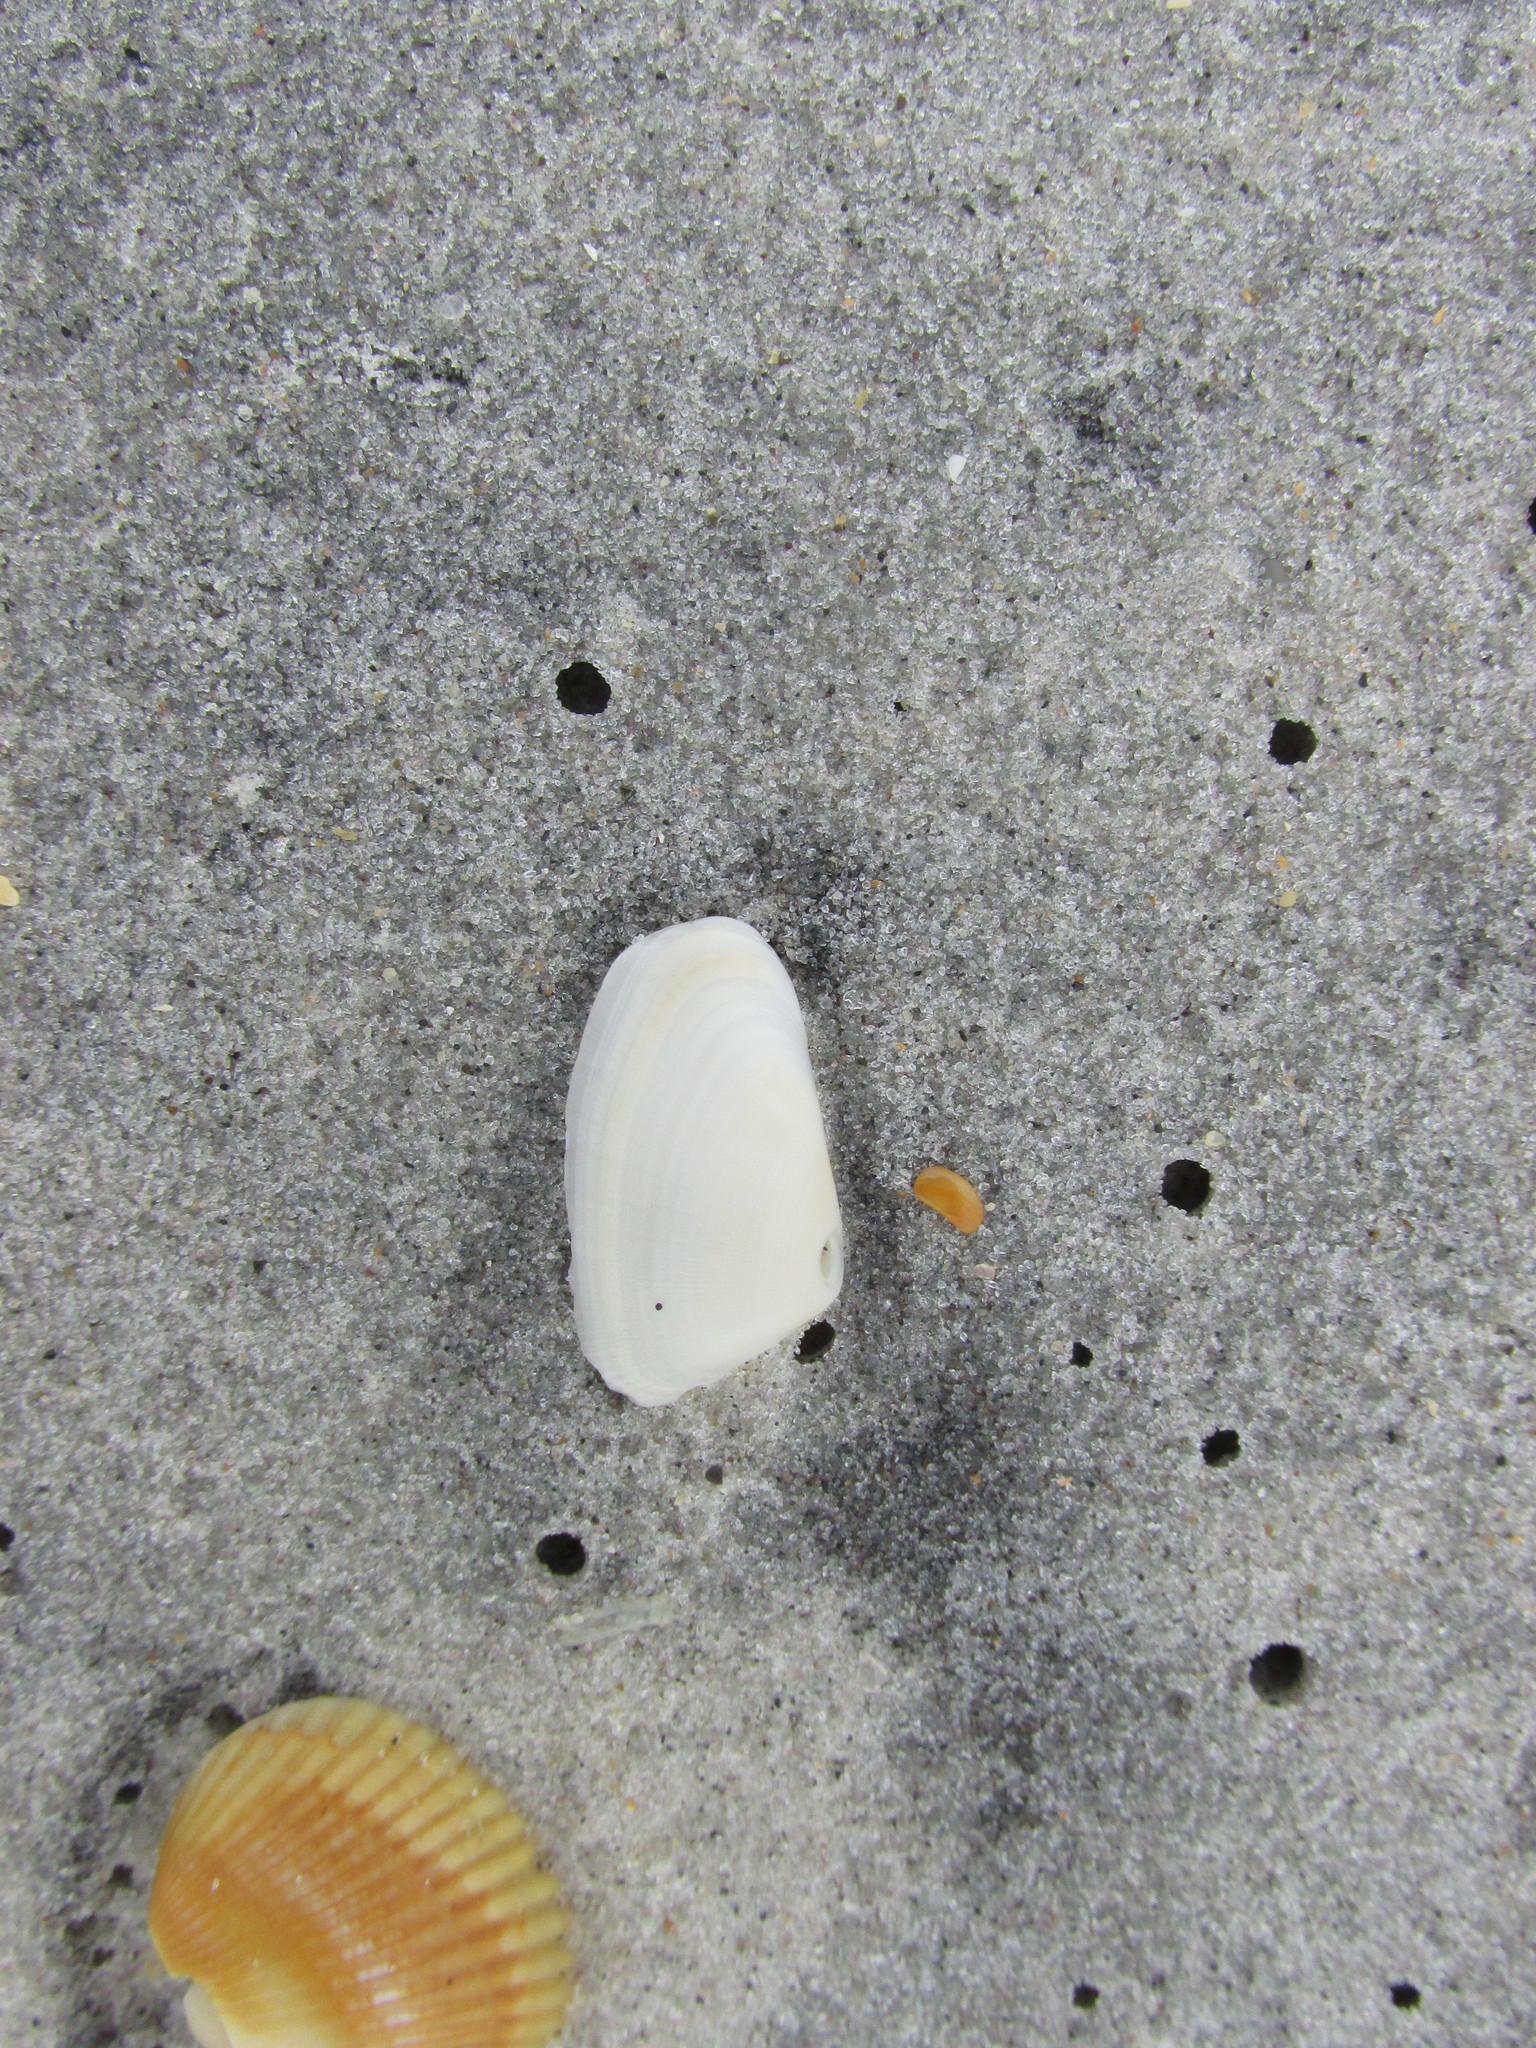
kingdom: Animalia
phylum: Mollusca
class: Bivalvia
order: Cardiida
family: Donacidae
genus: Donax
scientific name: Donax variabilis
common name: Butterfly shell
